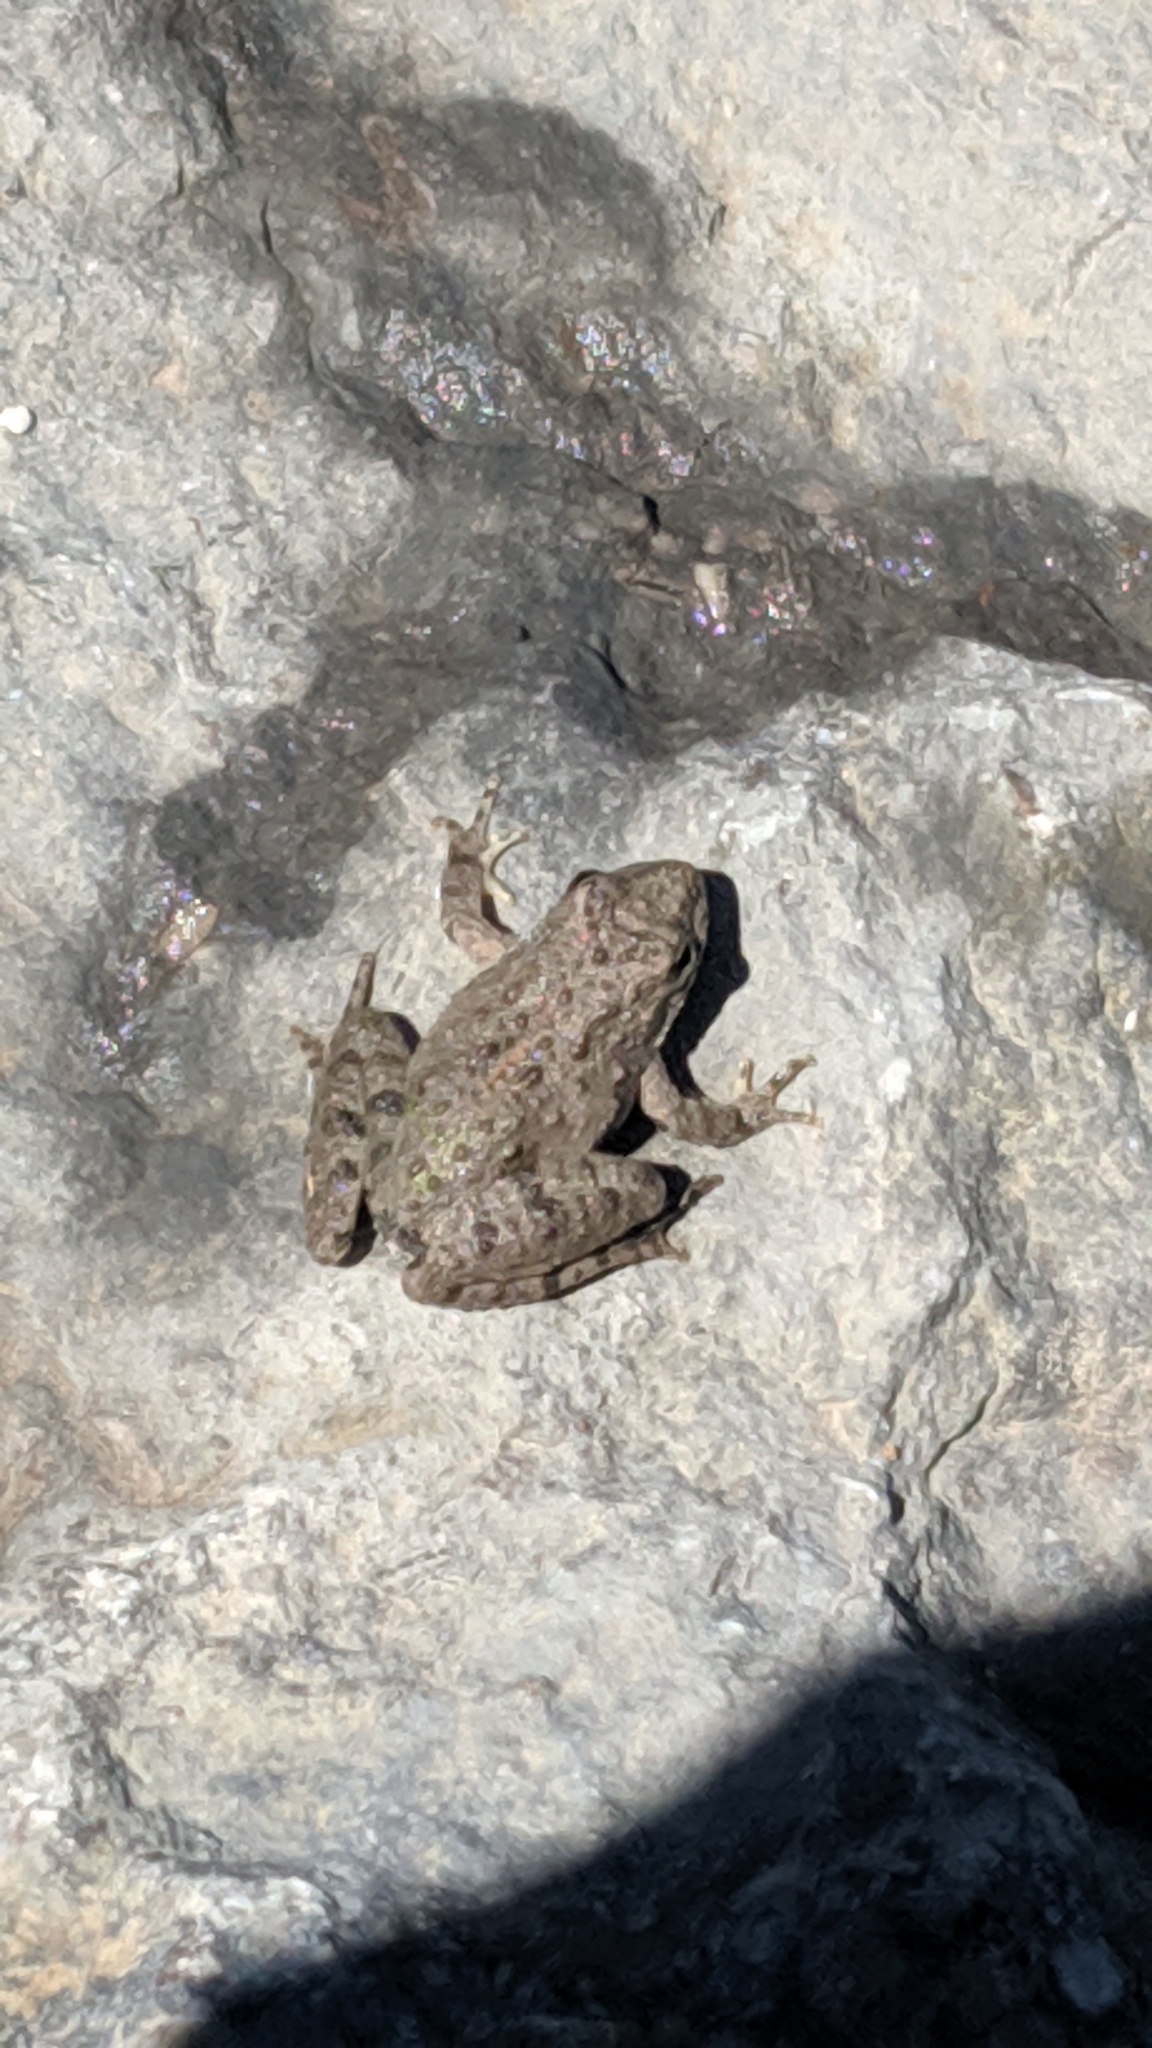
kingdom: Animalia
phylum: Chordata
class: Amphibia
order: Anura
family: Hylidae
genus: Acris
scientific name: Acris blanchardi
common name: Blanchard's cricket frog
